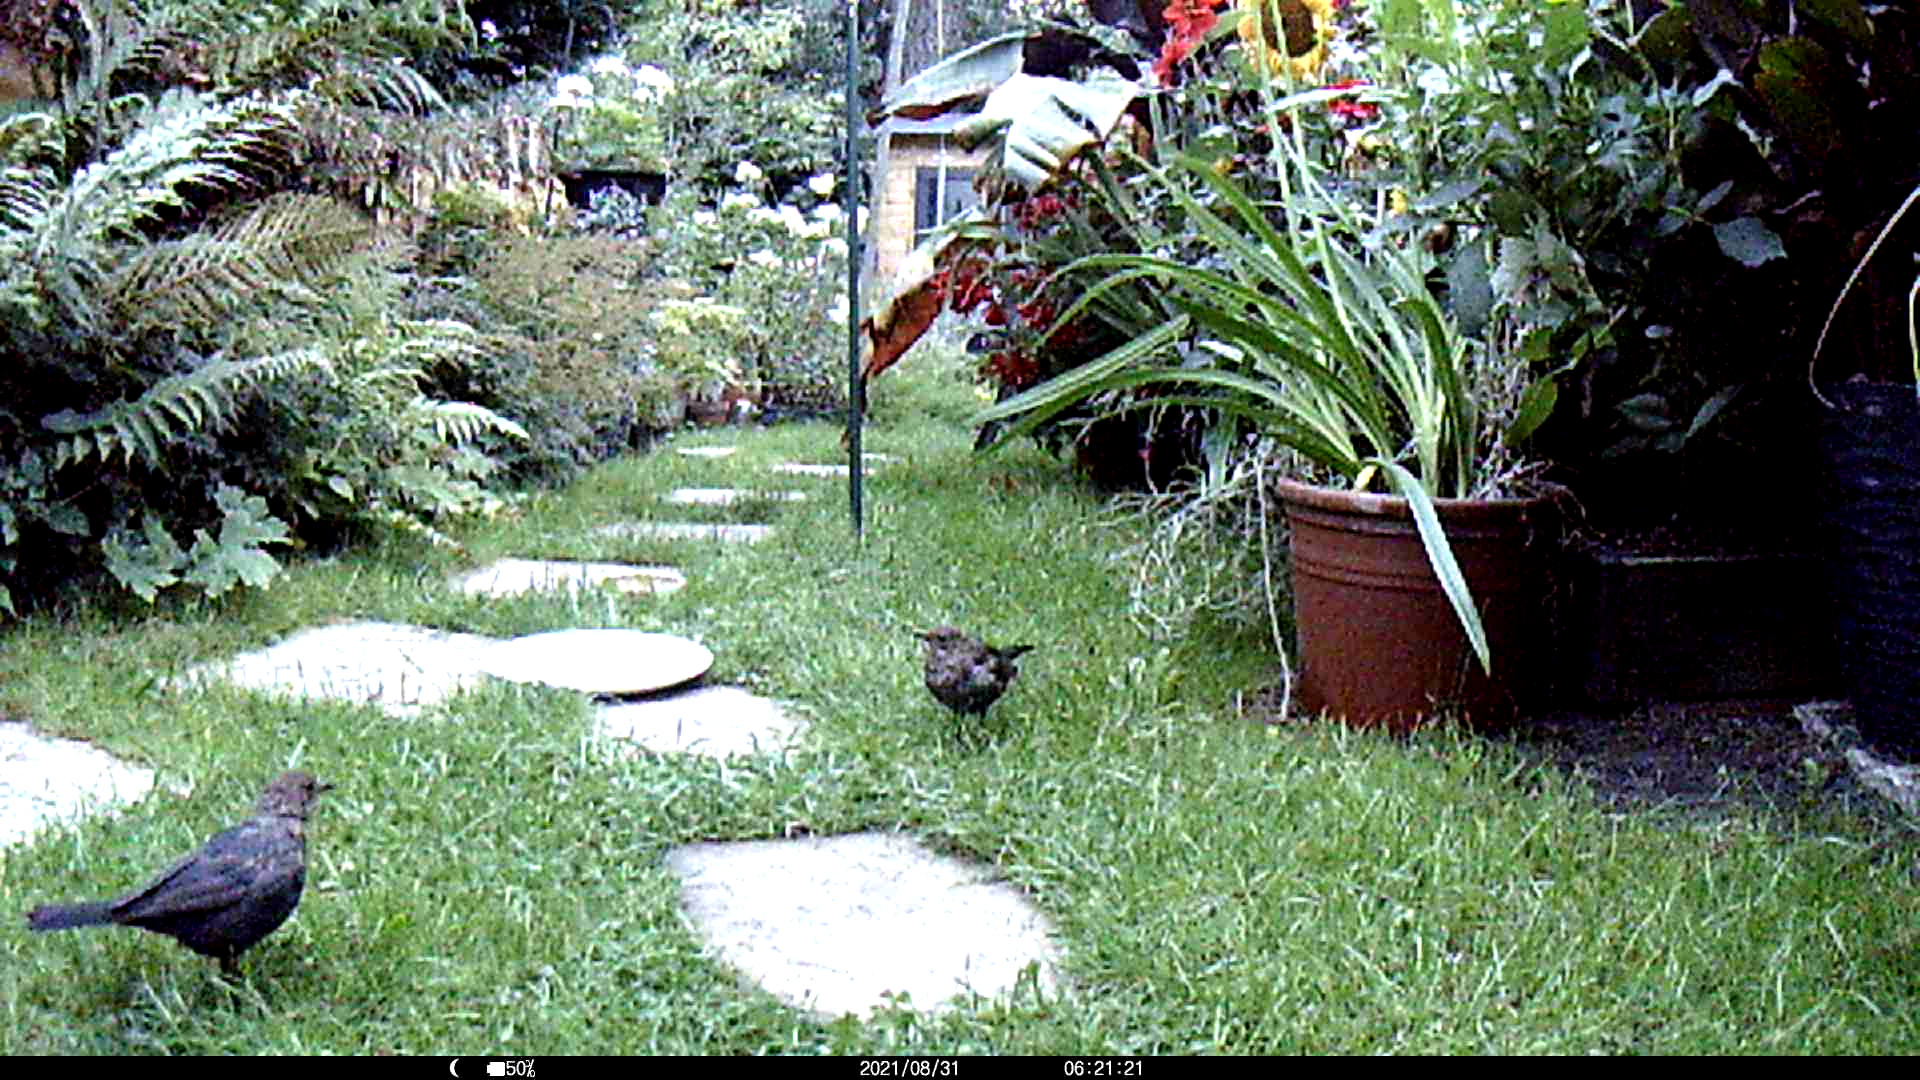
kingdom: Animalia
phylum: Chordata
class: Aves
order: Passeriformes
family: Turdidae
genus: Turdus
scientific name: Turdus merula
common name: Common blackbird
